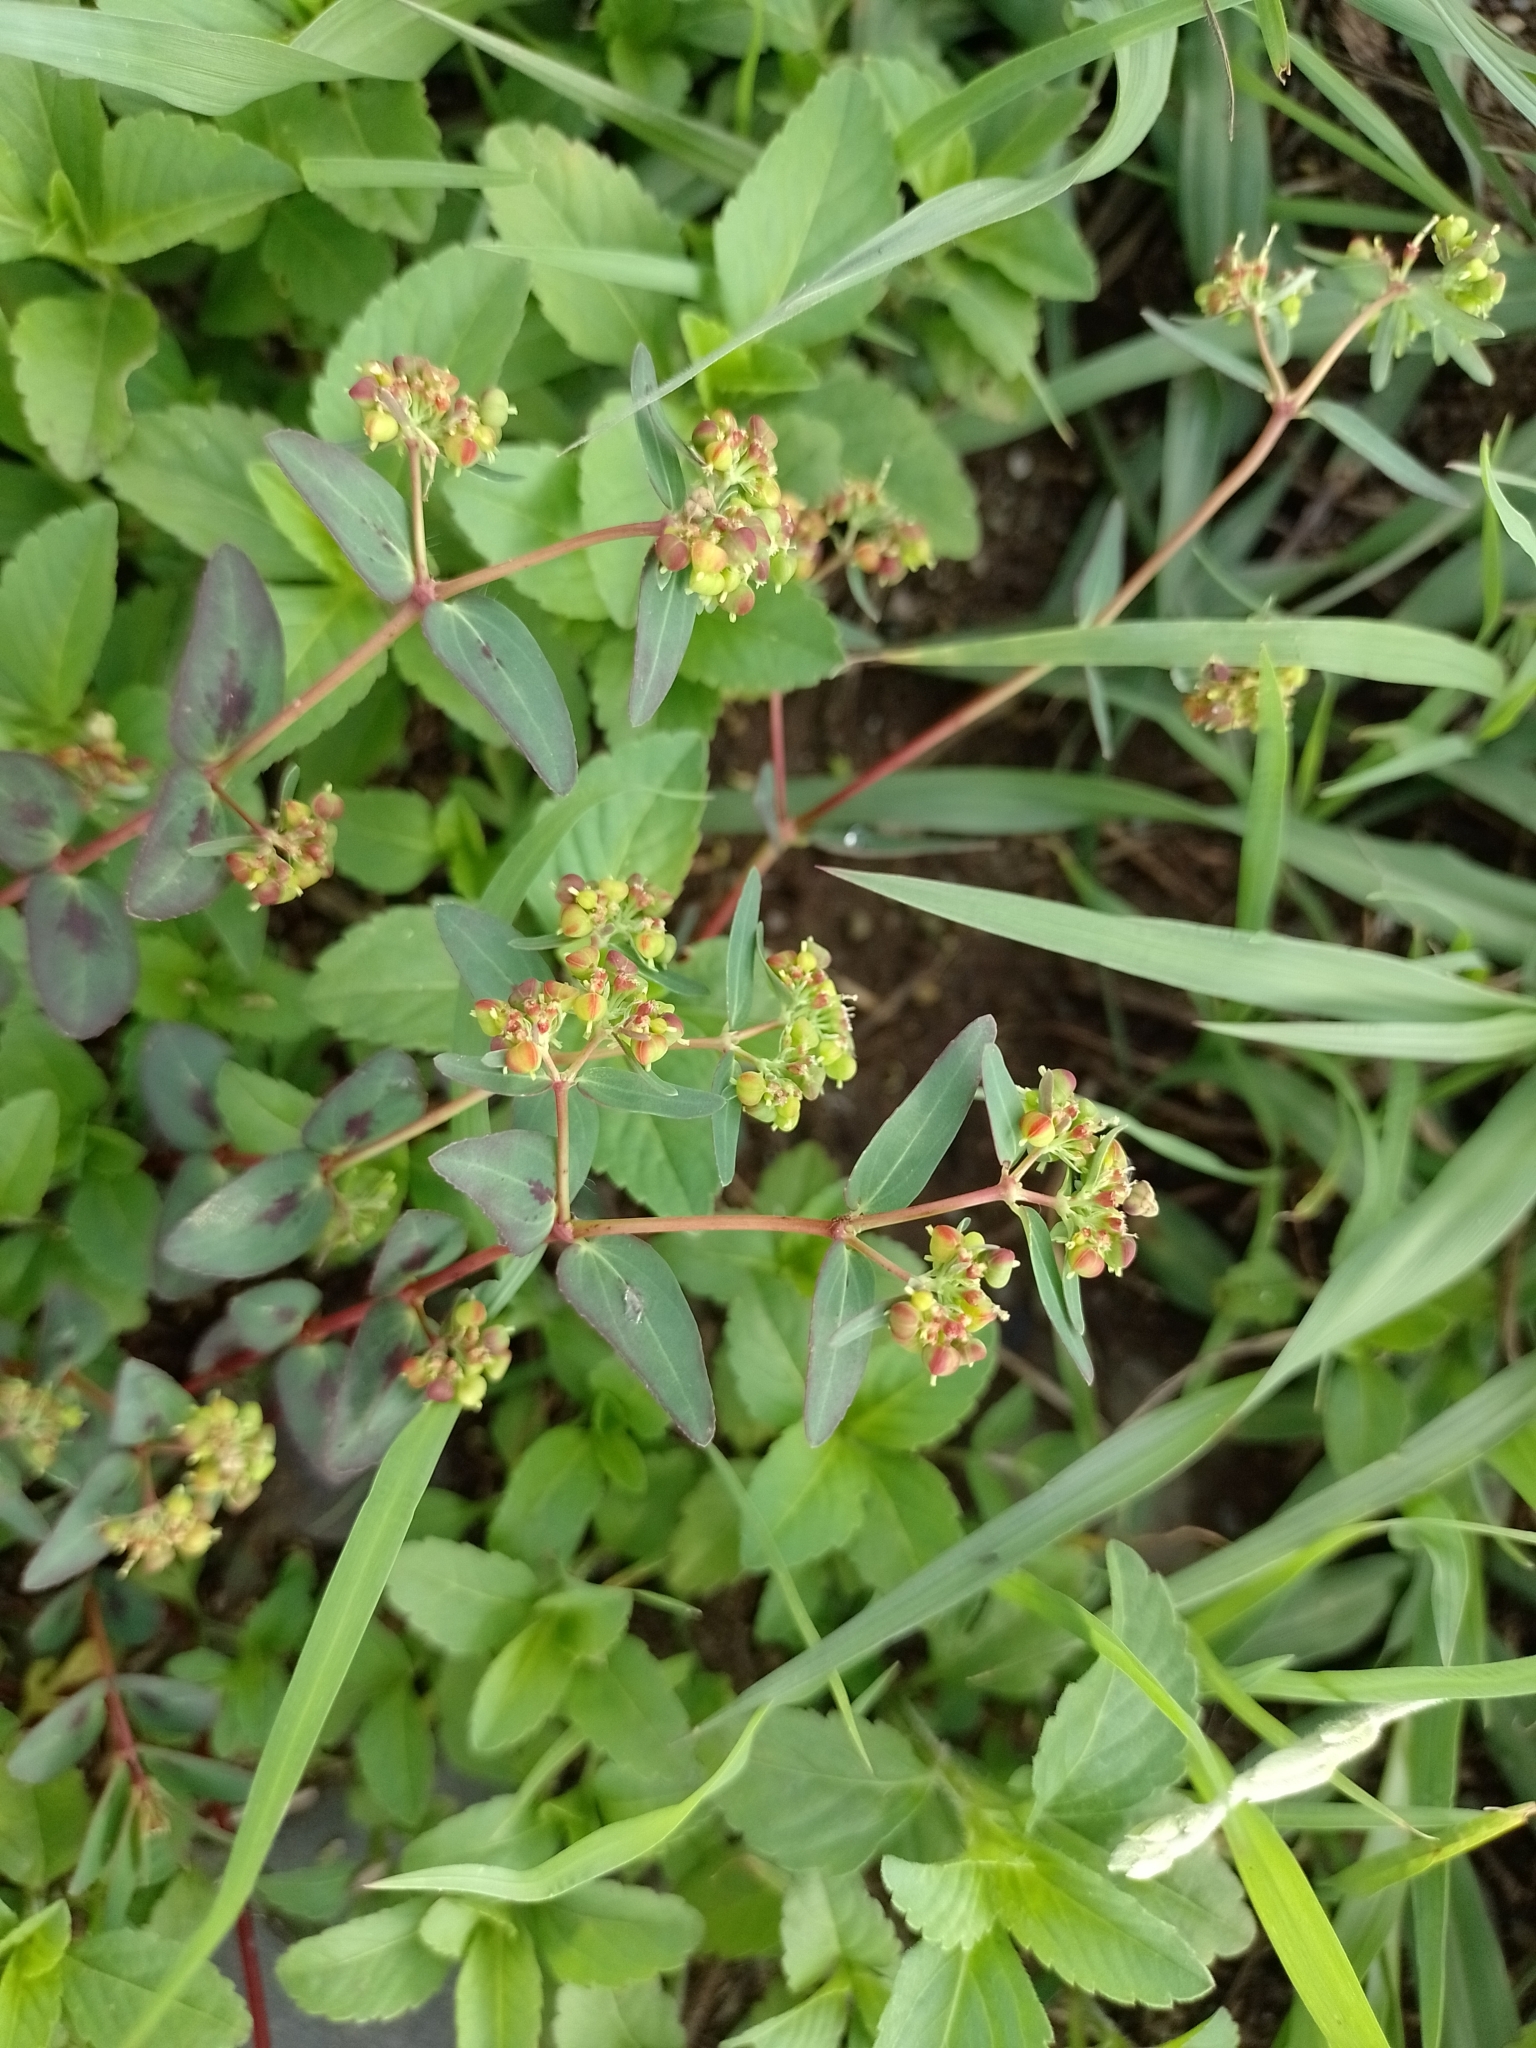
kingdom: Plantae
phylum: Tracheophyta
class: Magnoliopsida
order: Malpighiales
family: Euphorbiaceae
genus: Euphorbia
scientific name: Euphorbia berteroana
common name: Bertero's sandmat
